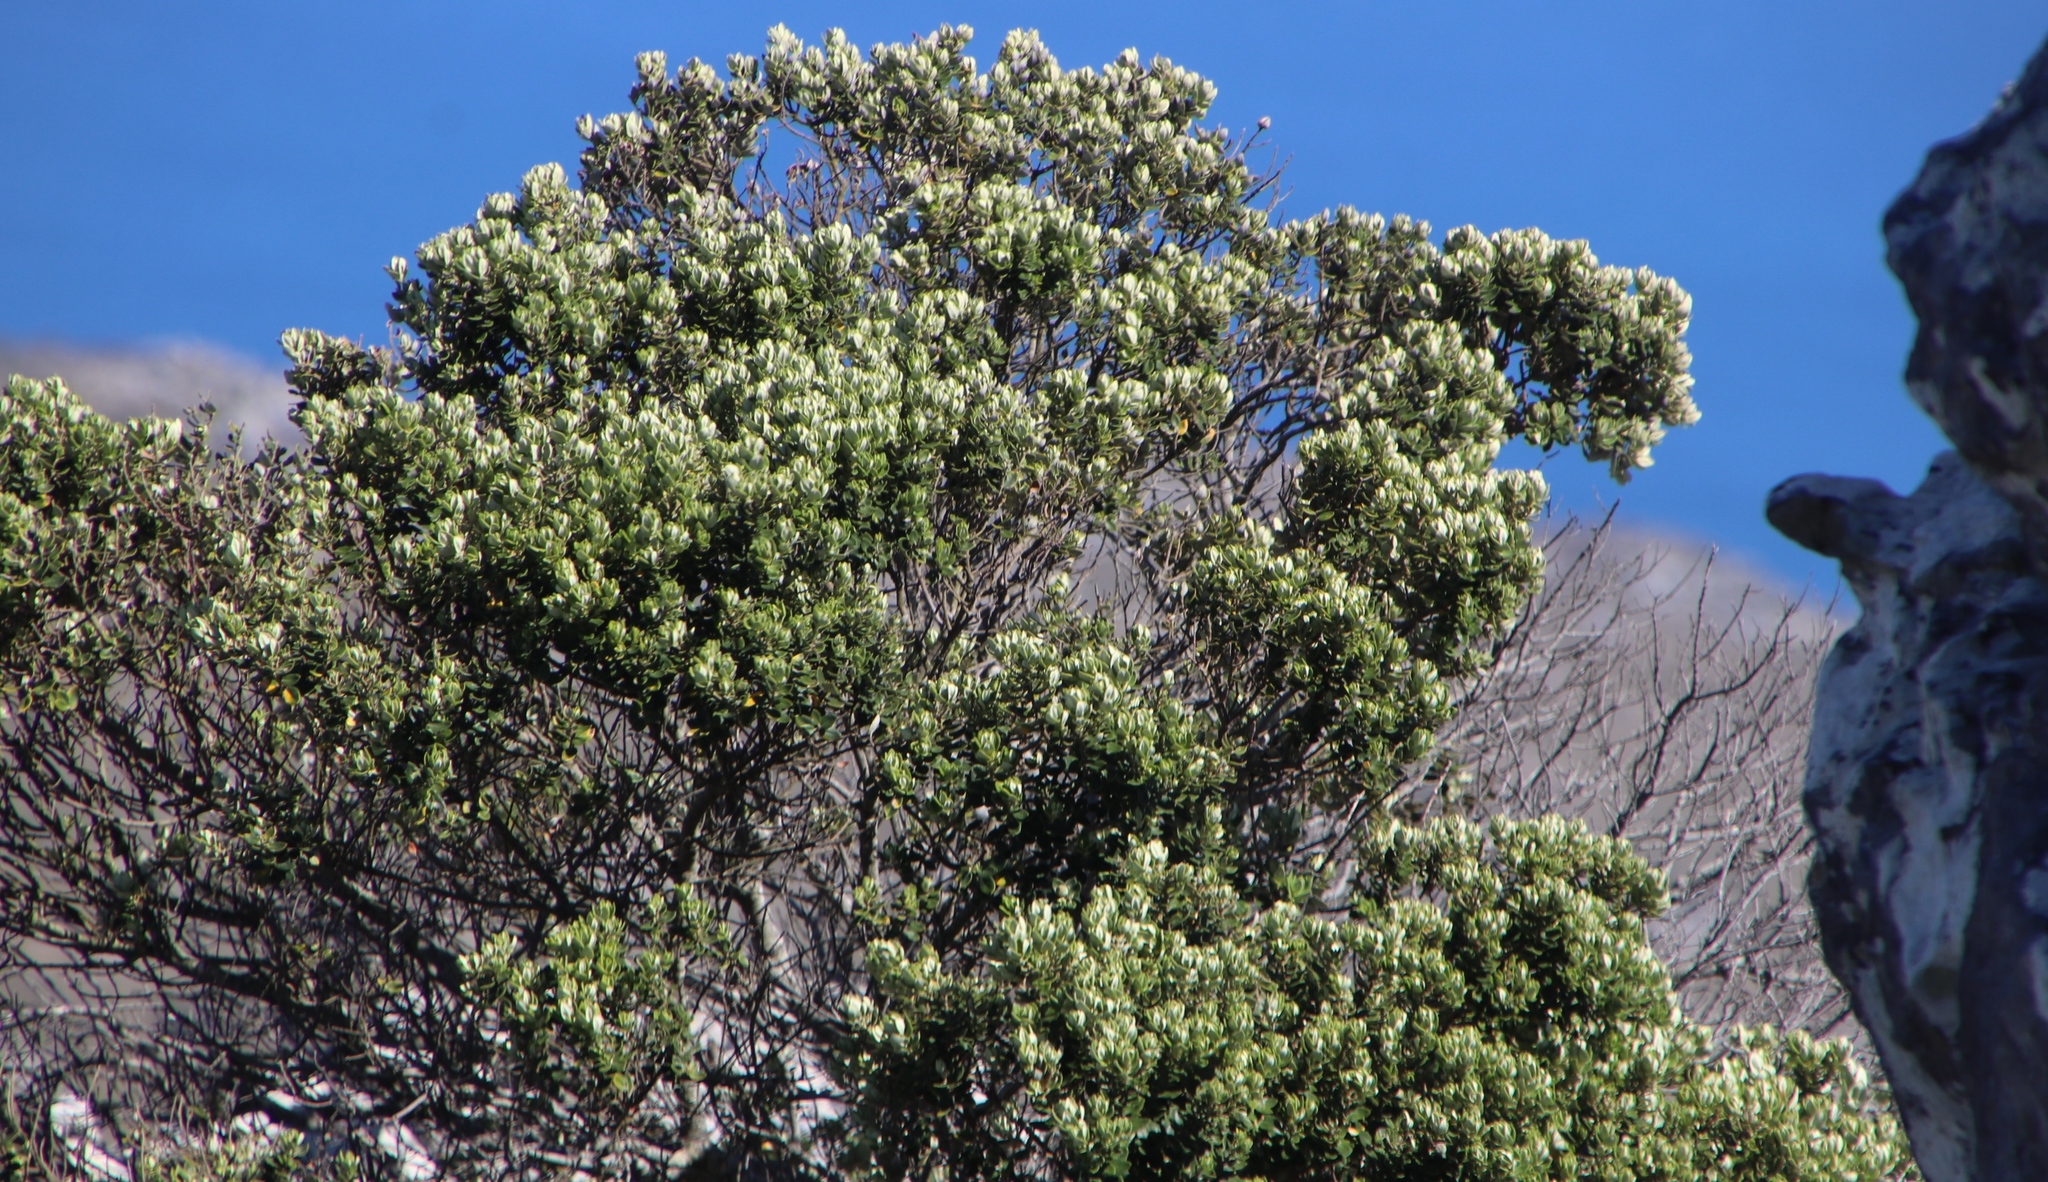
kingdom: Plantae
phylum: Tracheophyta
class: Magnoliopsida
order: Rosales
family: Rhamnaceae
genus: Phylica
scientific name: Phylica buxifolia
